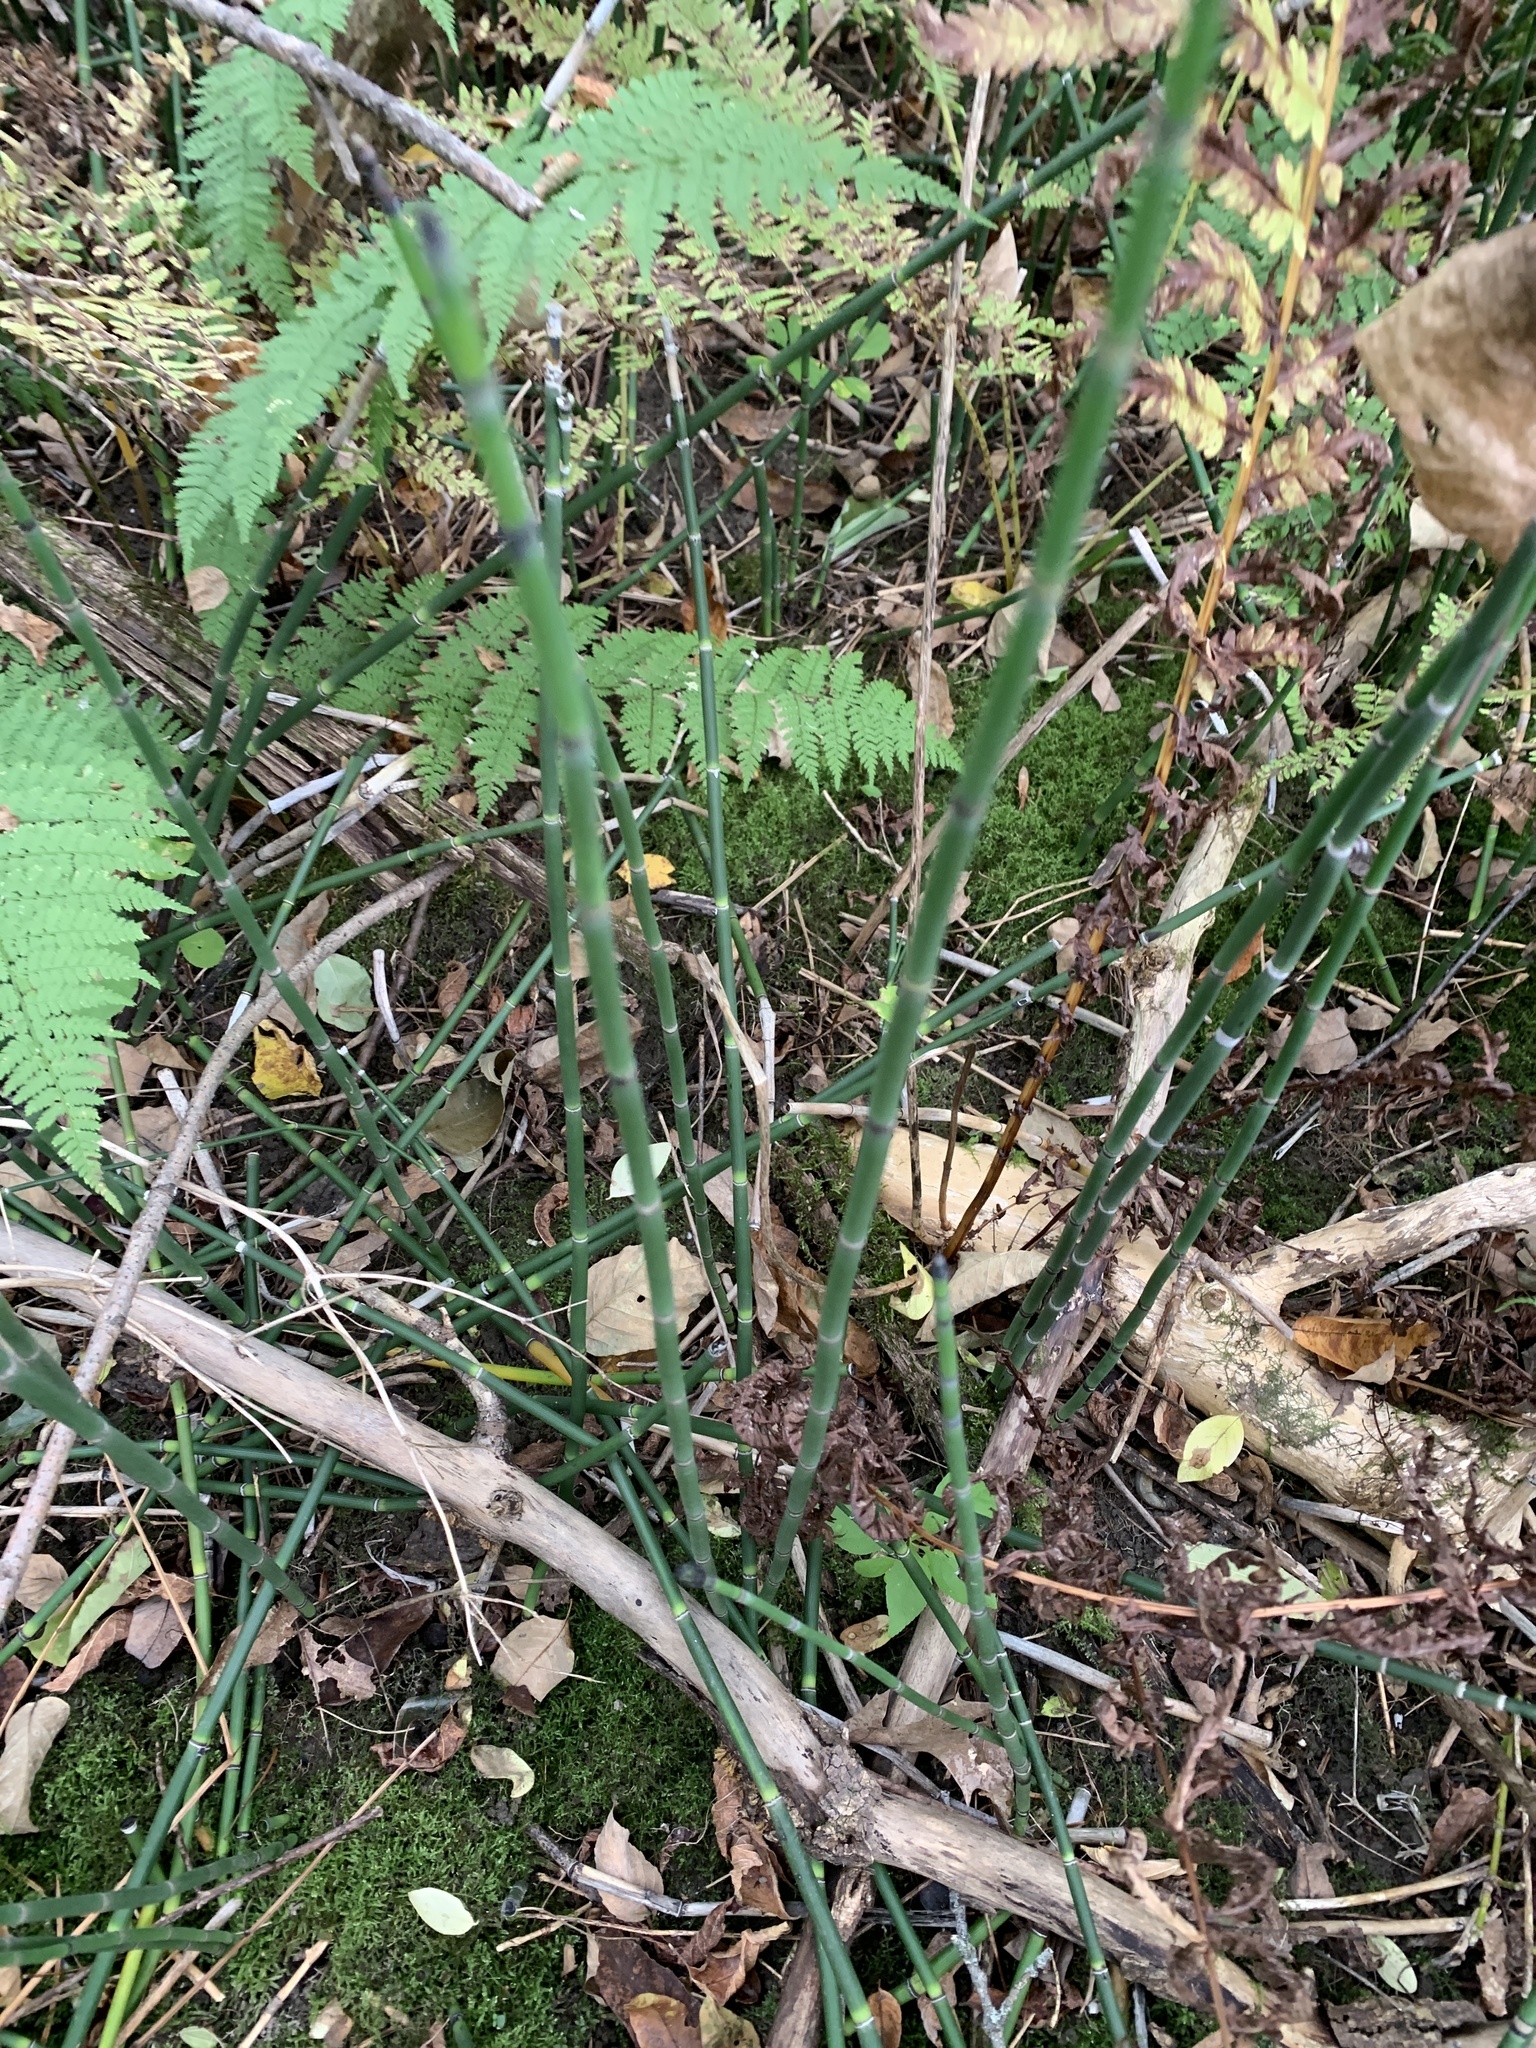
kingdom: Plantae
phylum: Tracheophyta
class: Polypodiopsida
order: Equisetales
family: Equisetaceae
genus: Equisetum
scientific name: Equisetum hyemale
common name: Rough horsetail
